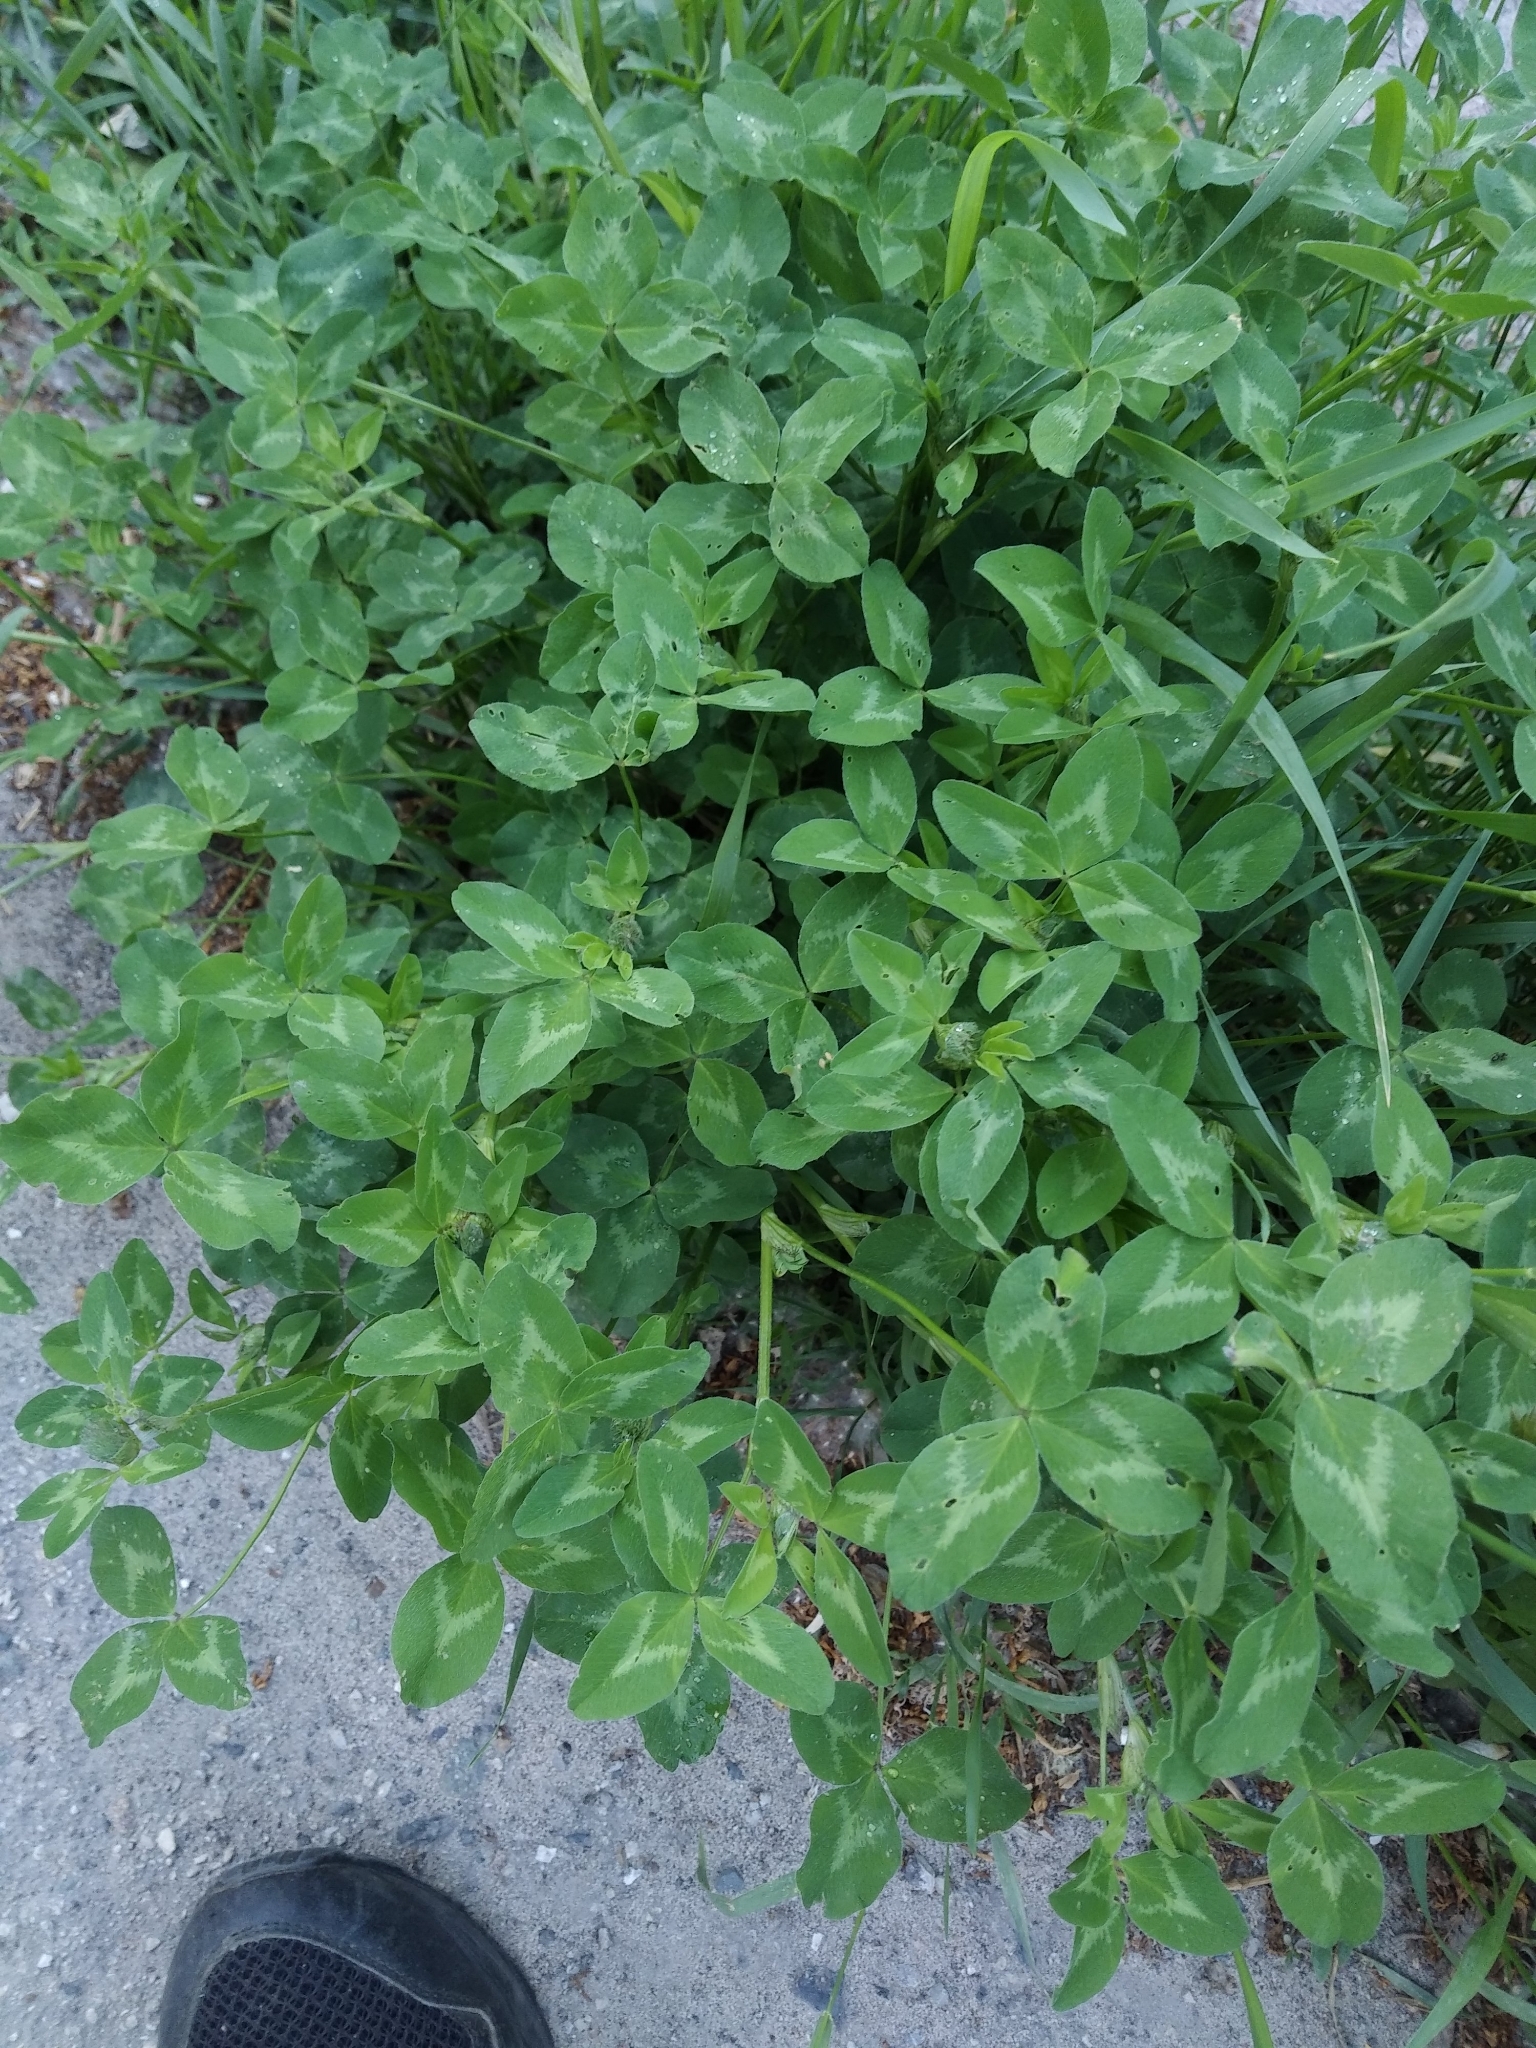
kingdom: Plantae
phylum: Tracheophyta
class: Magnoliopsida
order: Fabales
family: Fabaceae
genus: Trifolium
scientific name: Trifolium pratense
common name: Red clover
